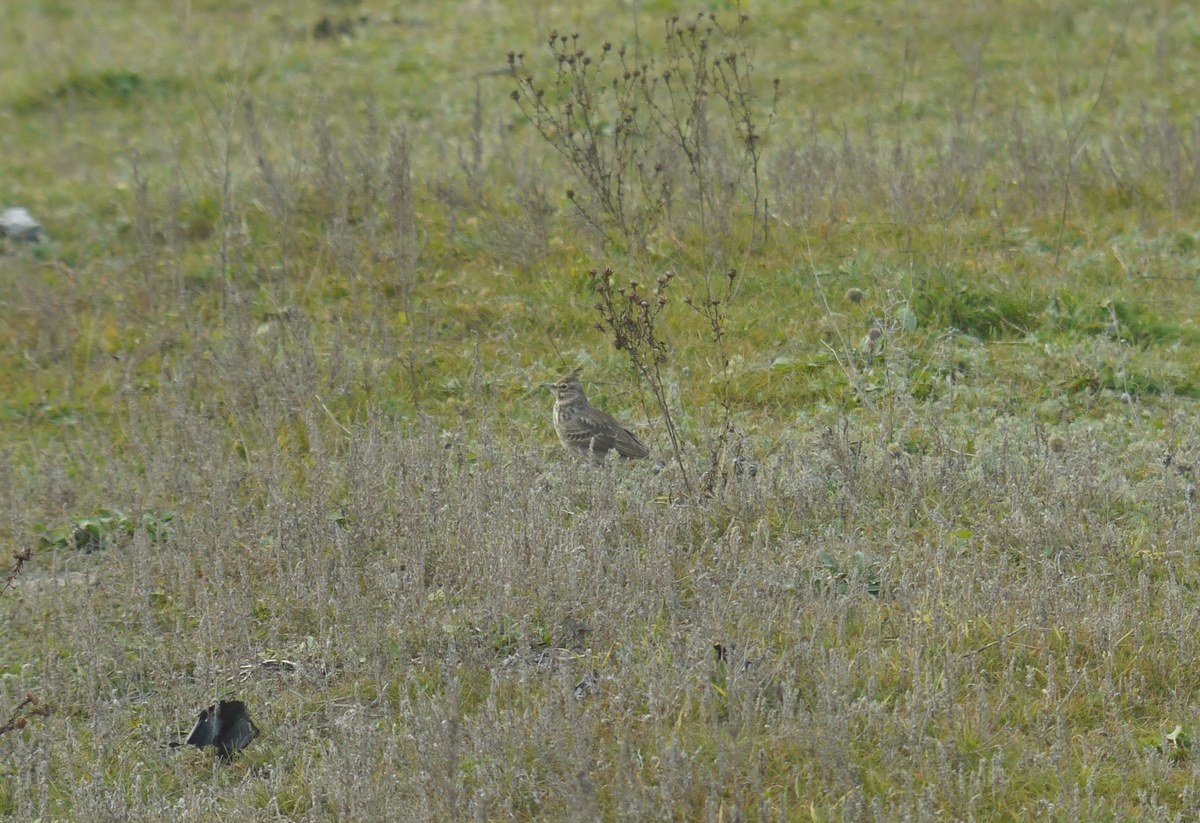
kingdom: Animalia
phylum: Chordata
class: Aves
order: Passeriformes
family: Alaudidae
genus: Galerida
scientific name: Galerida cristata
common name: Crested lark
